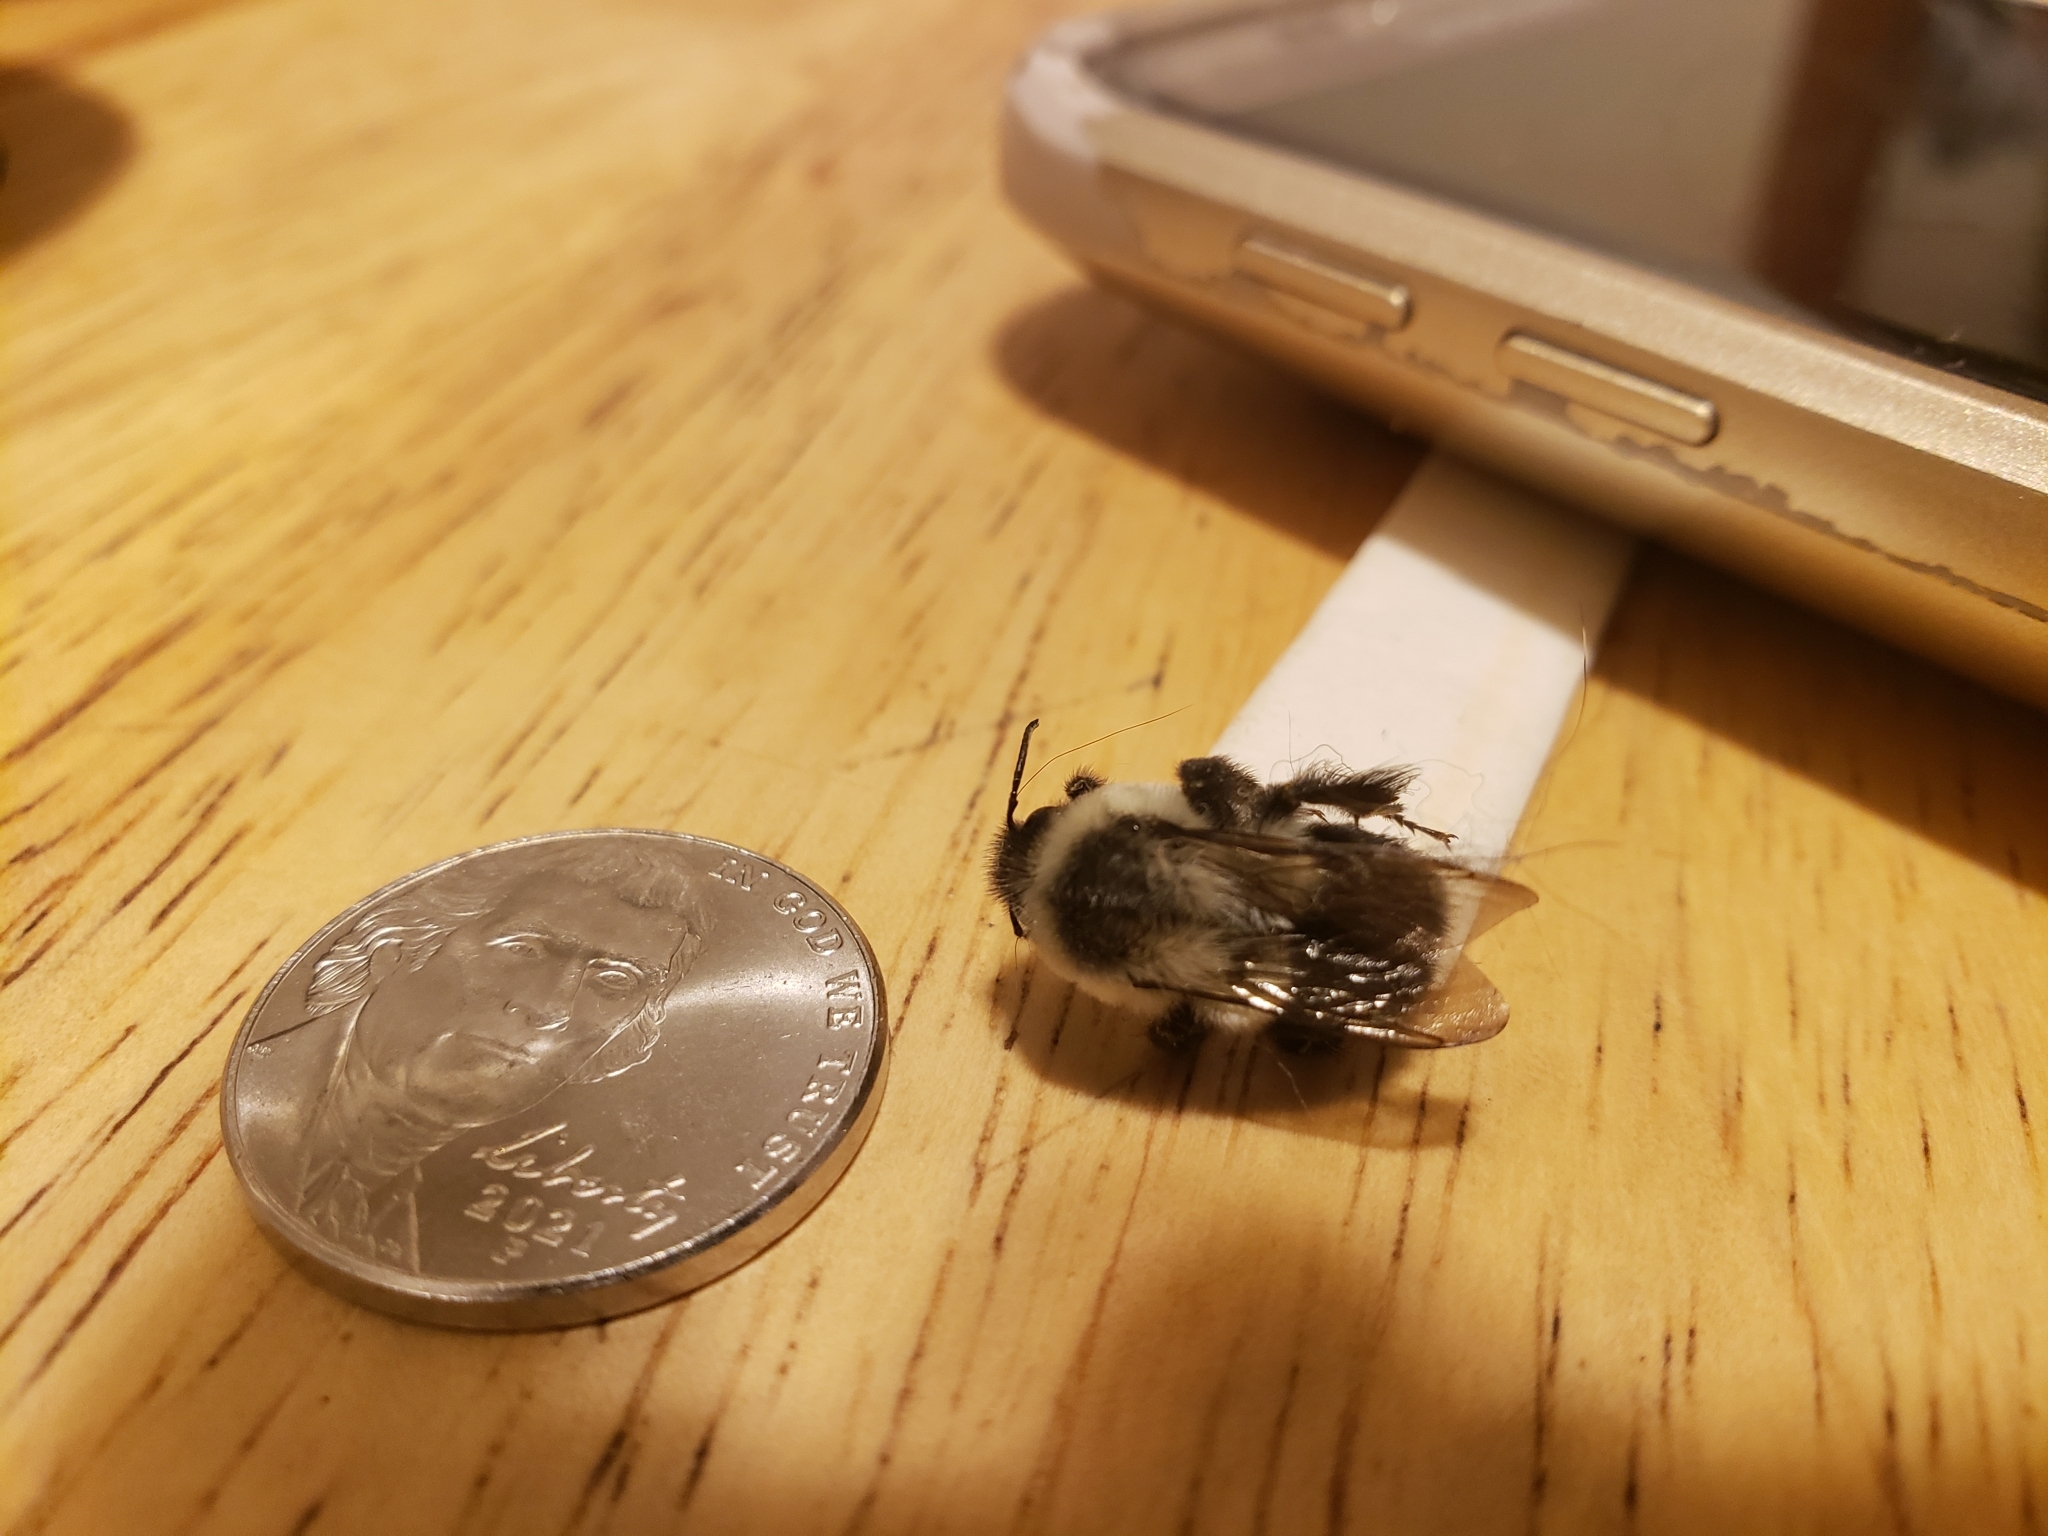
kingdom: Animalia
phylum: Arthropoda
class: Insecta
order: Hymenoptera
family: Apidae
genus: Bombus
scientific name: Bombus impatiens
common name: Common eastern bumble bee
